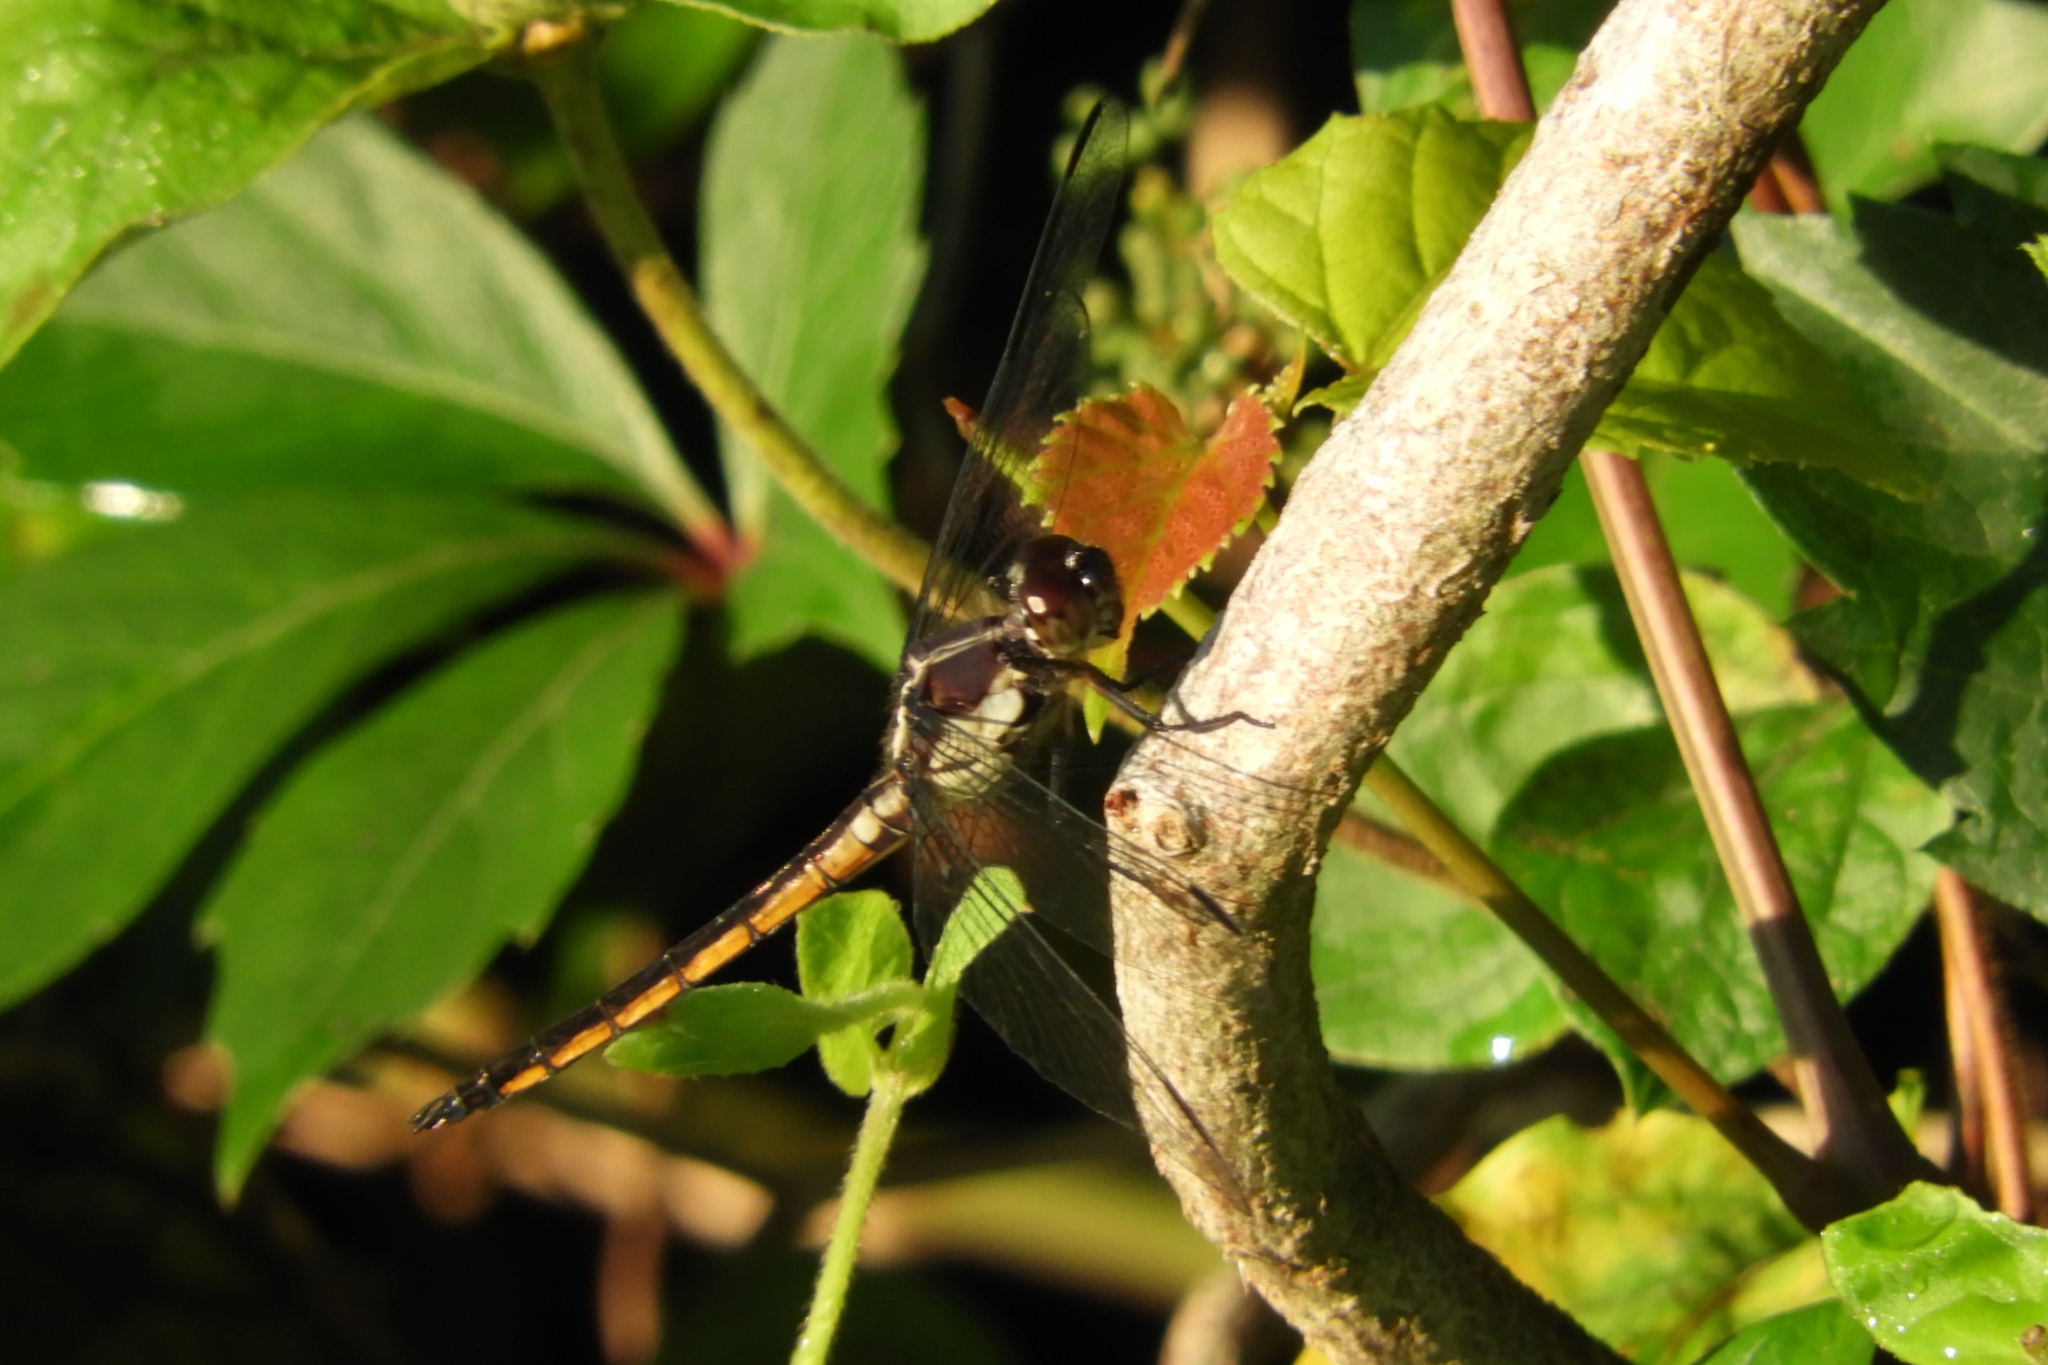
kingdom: Animalia
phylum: Arthropoda
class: Insecta
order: Odonata
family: Libellulidae
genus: Libellula
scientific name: Libellula incesta
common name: Slaty skimmer
